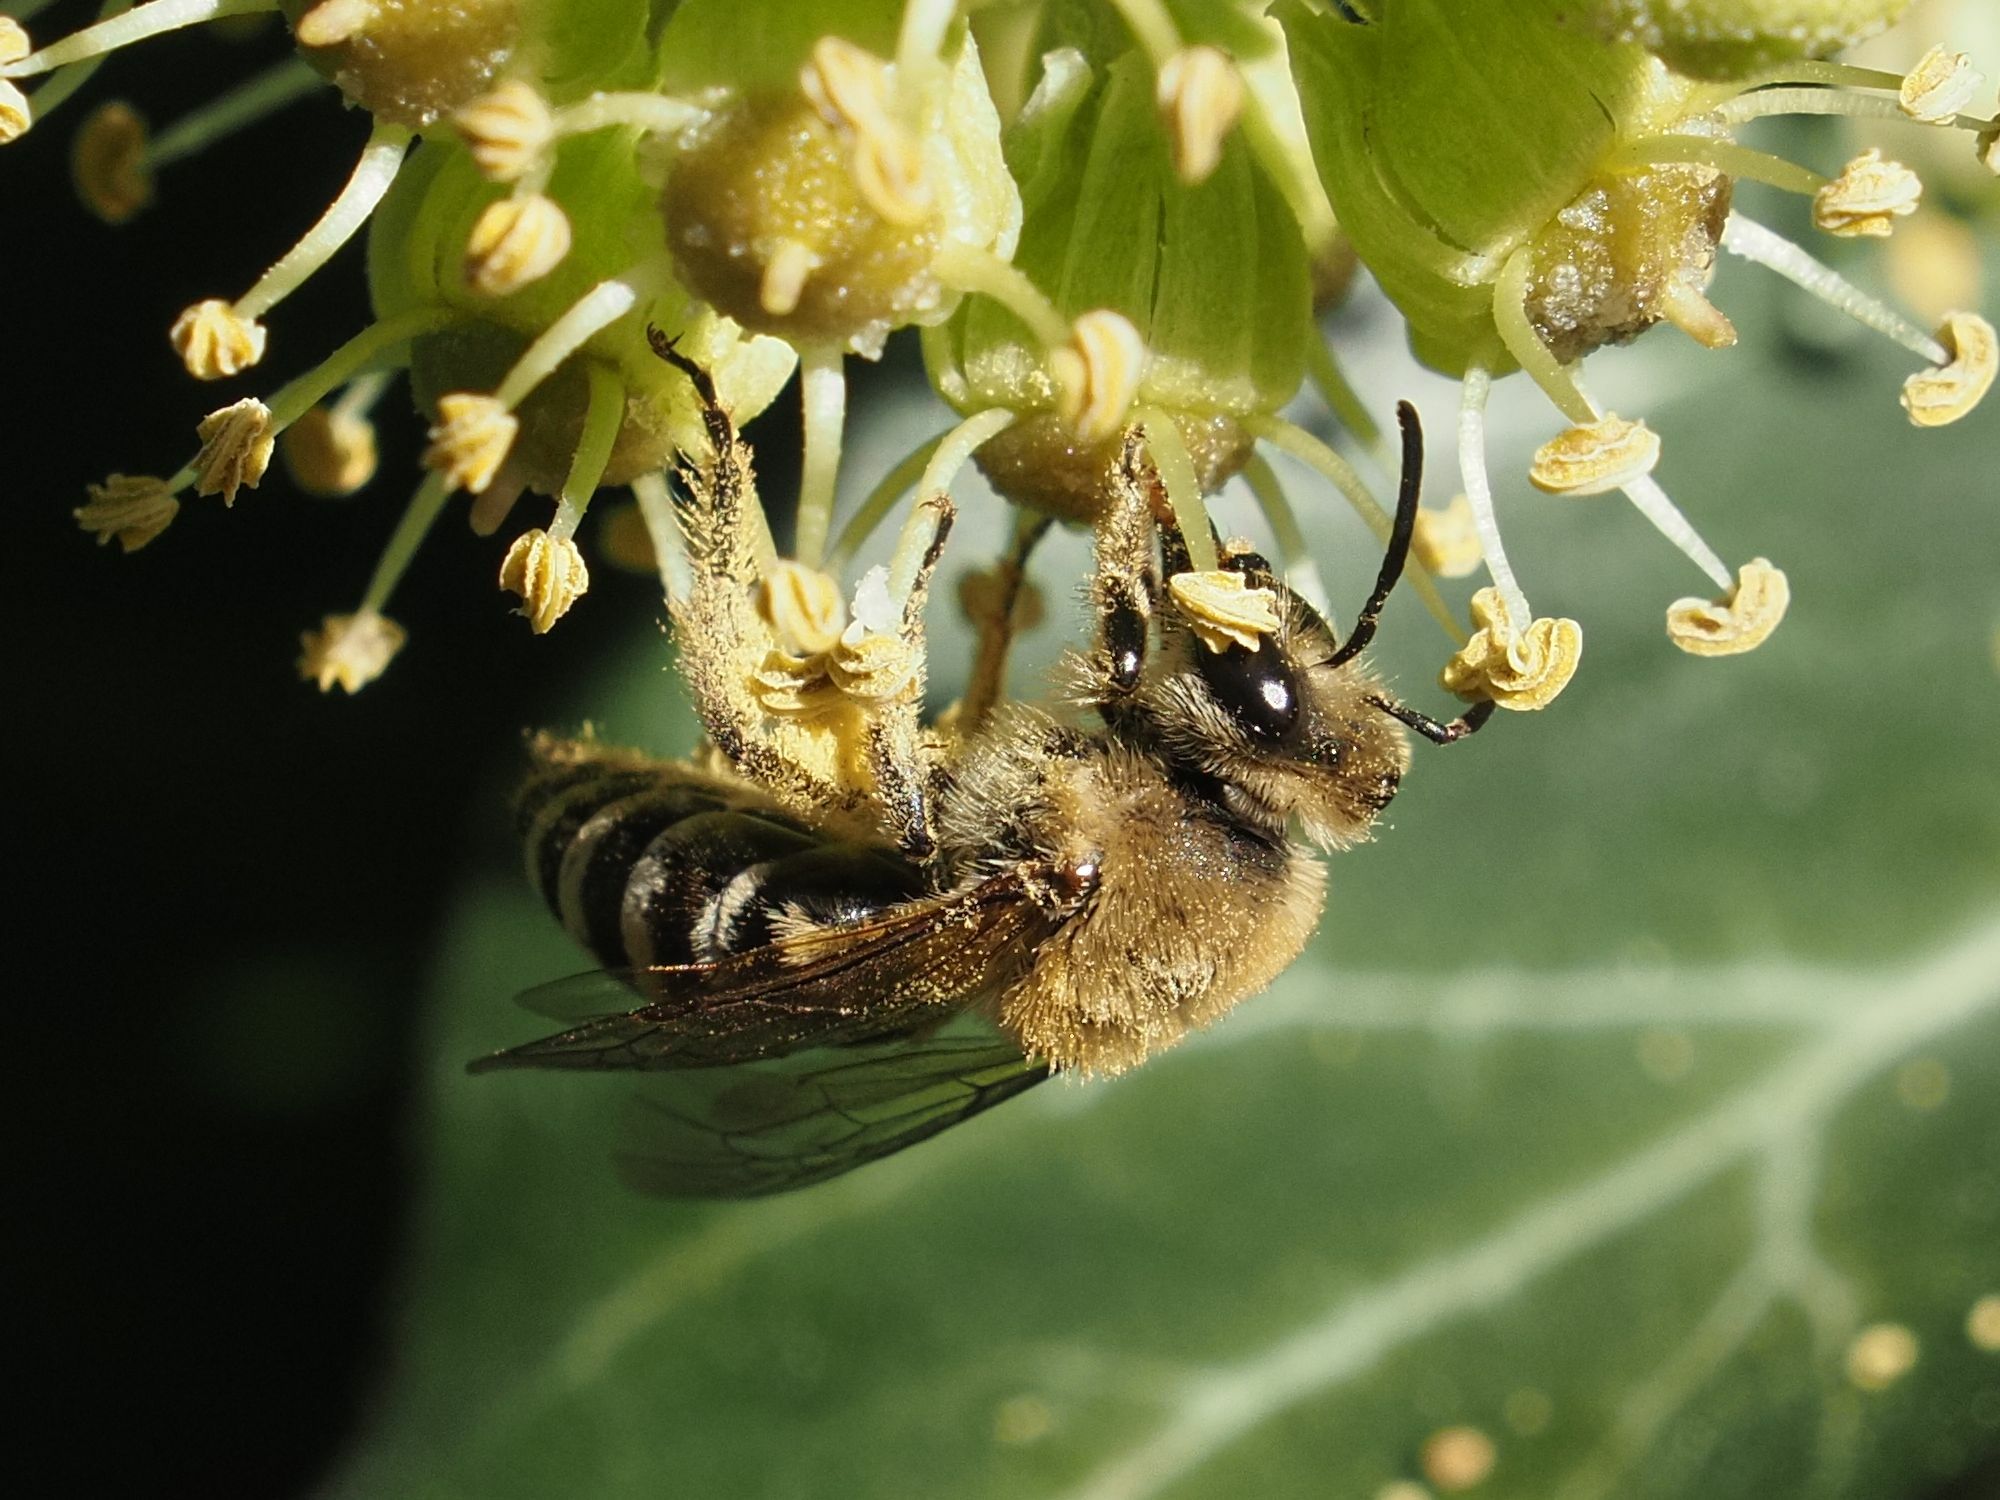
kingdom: Animalia
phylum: Arthropoda
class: Insecta
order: Hymenoptera
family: Colletidae
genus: Colletes
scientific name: Colletes hederae
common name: Ivy bee
